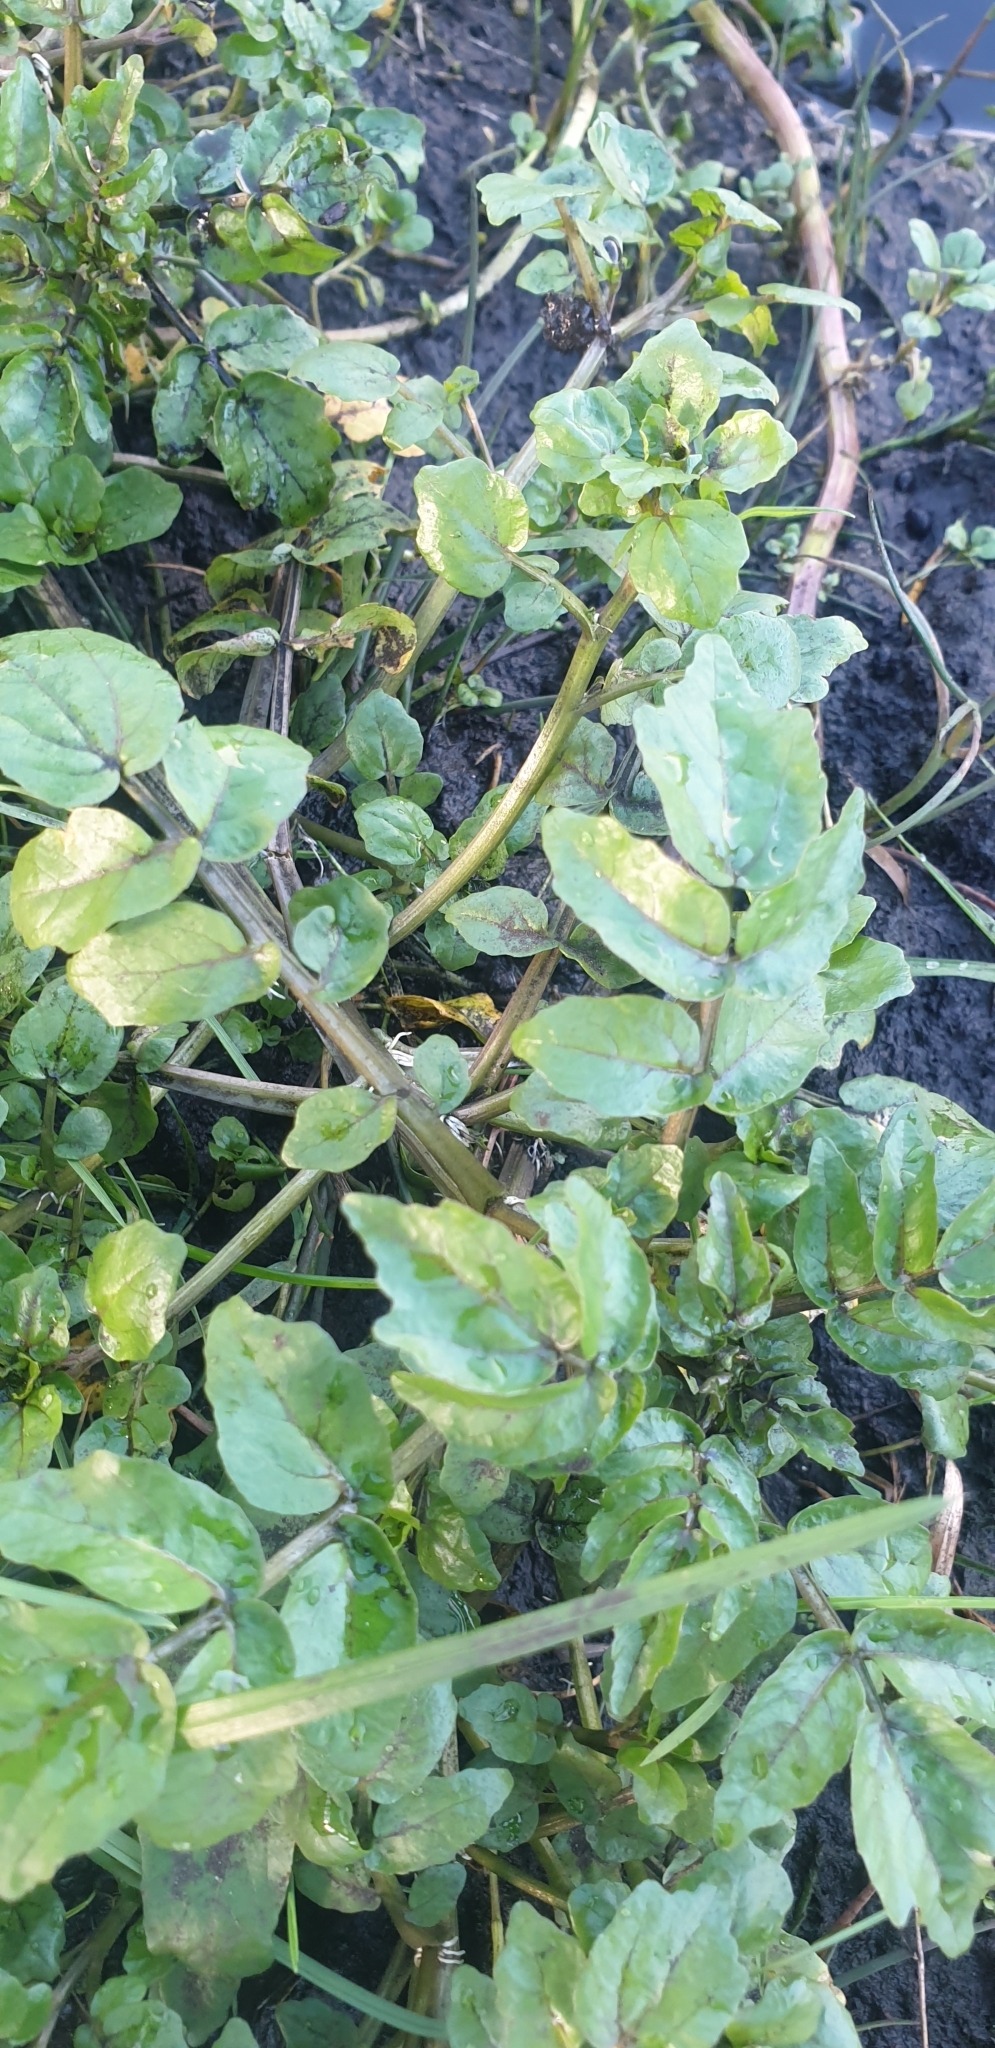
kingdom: Plantae
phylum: Tracheophyta
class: Magnoliopsida
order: Brassicales
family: Brassicaceae
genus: Nasturtium
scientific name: Nasturtium officinale
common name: Watercress
